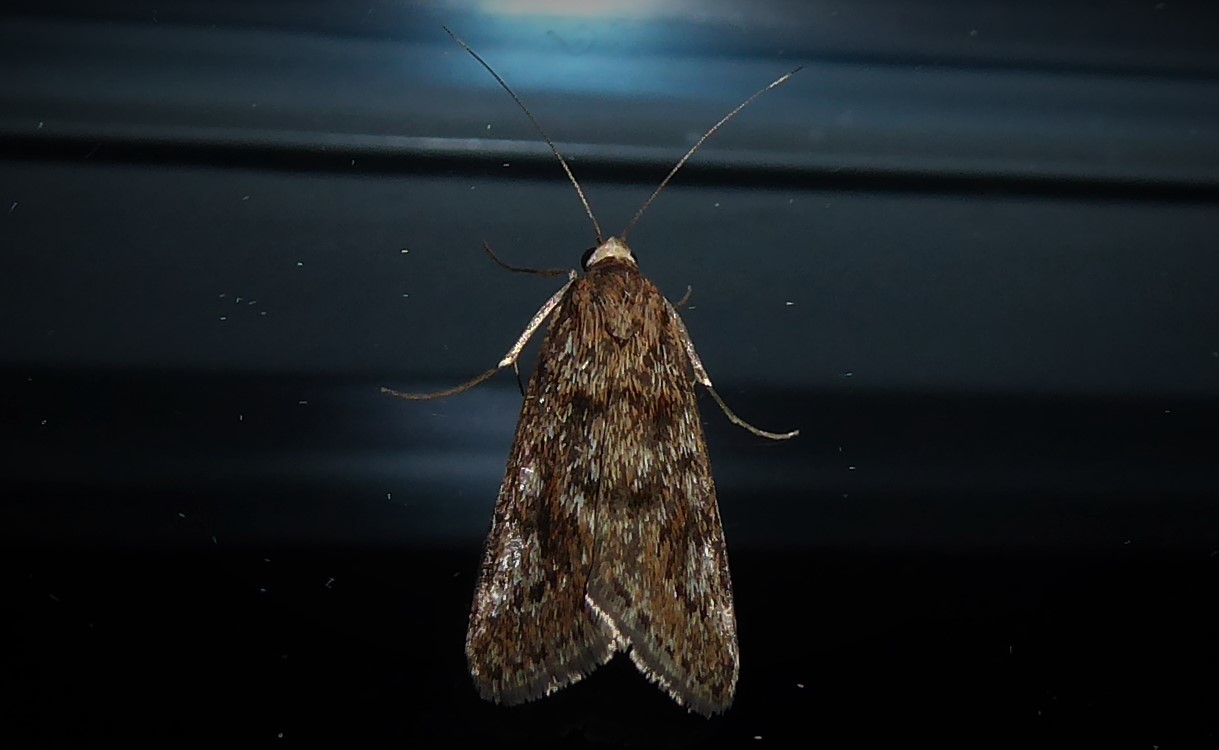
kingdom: Animalia
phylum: Arthropoda
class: Insecta
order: Lepidoptera
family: Crambidae
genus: Achyra
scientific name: Achyra affinitalis
